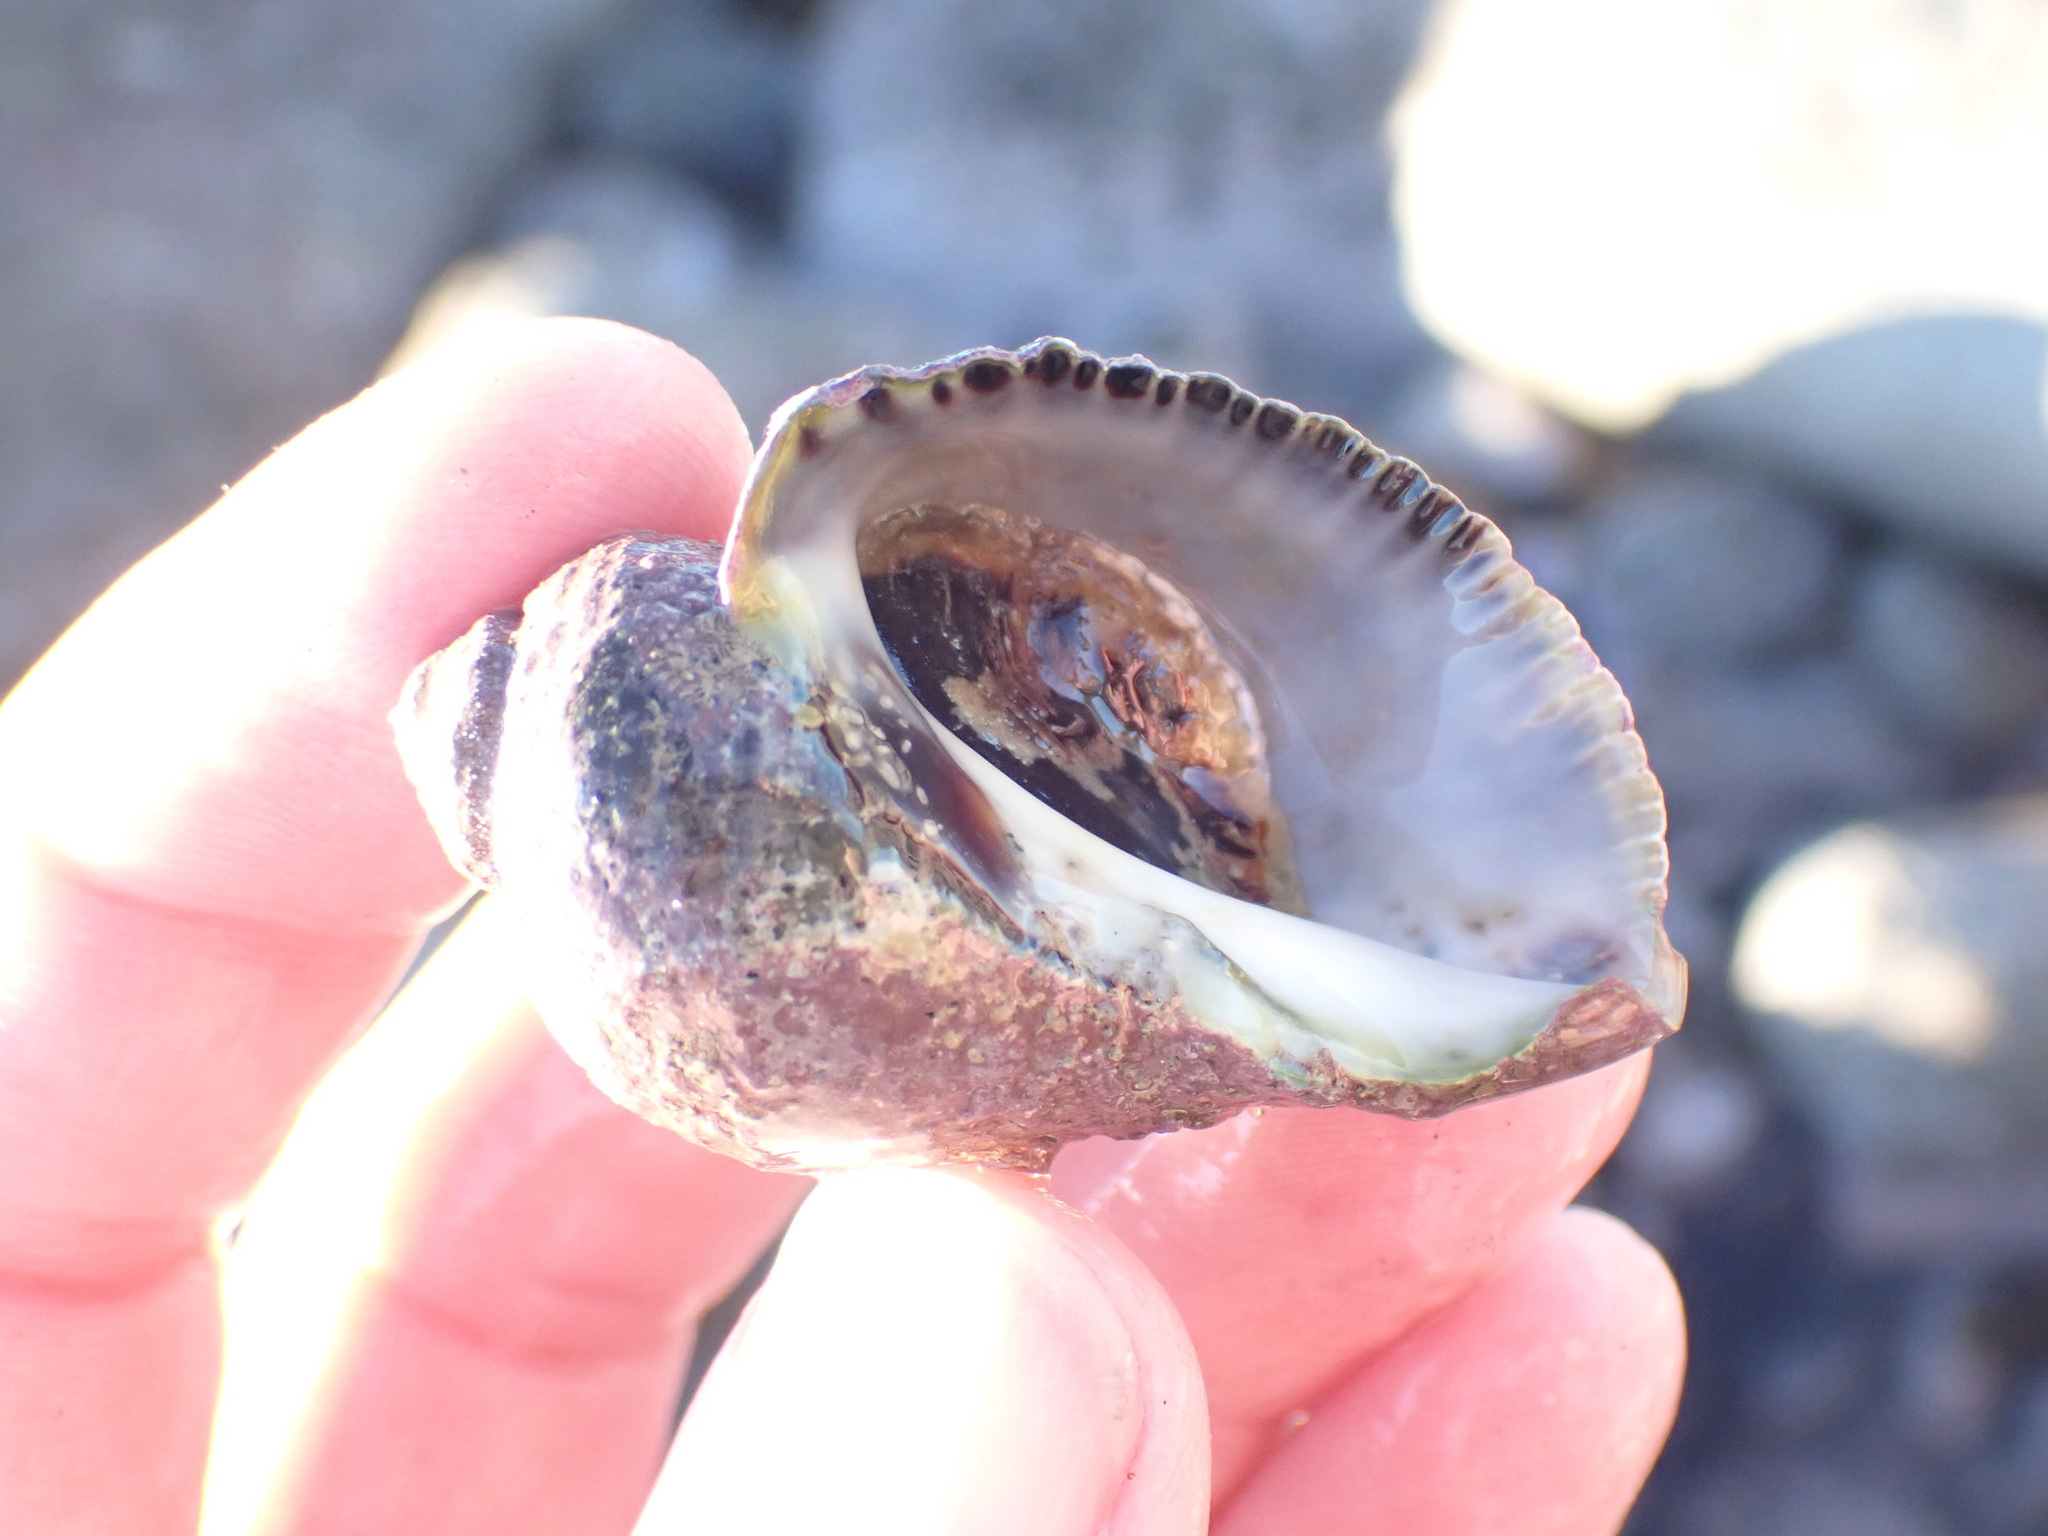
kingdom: Animalia
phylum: Mollusca
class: Gastropoda
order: Neogastropoda
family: Muricidae
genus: Haustrum
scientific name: Haustrum haustorium
